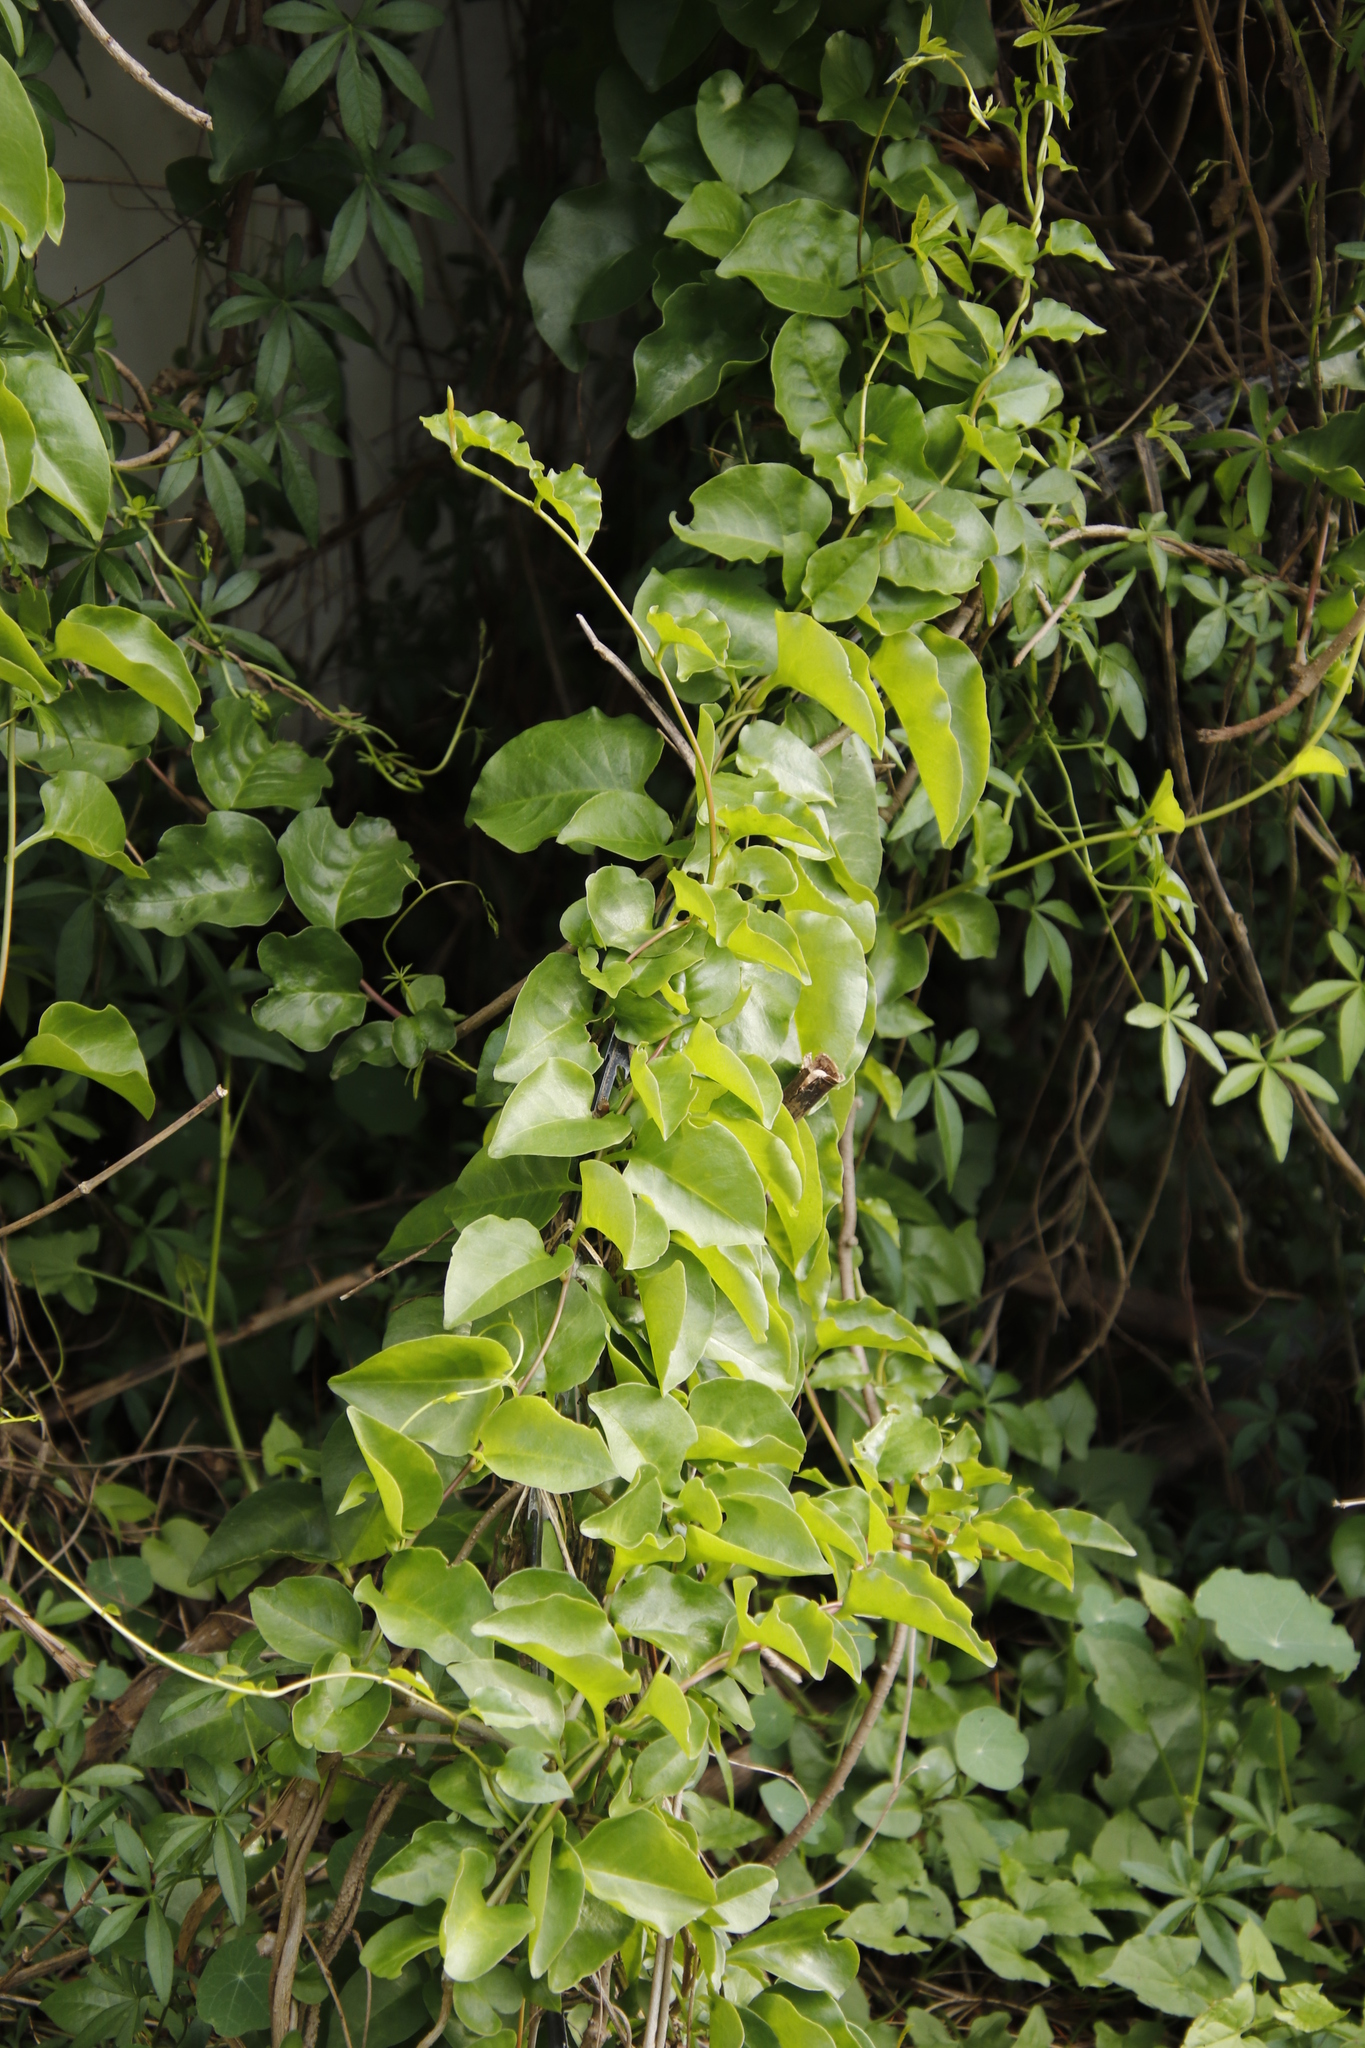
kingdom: Plantae
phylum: Tracheophyta
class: Magnoliopsida
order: Caryophyllales
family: Basellaceae
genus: Anredera
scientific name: Anredera cordifolia
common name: Heartleaf madeiravine
